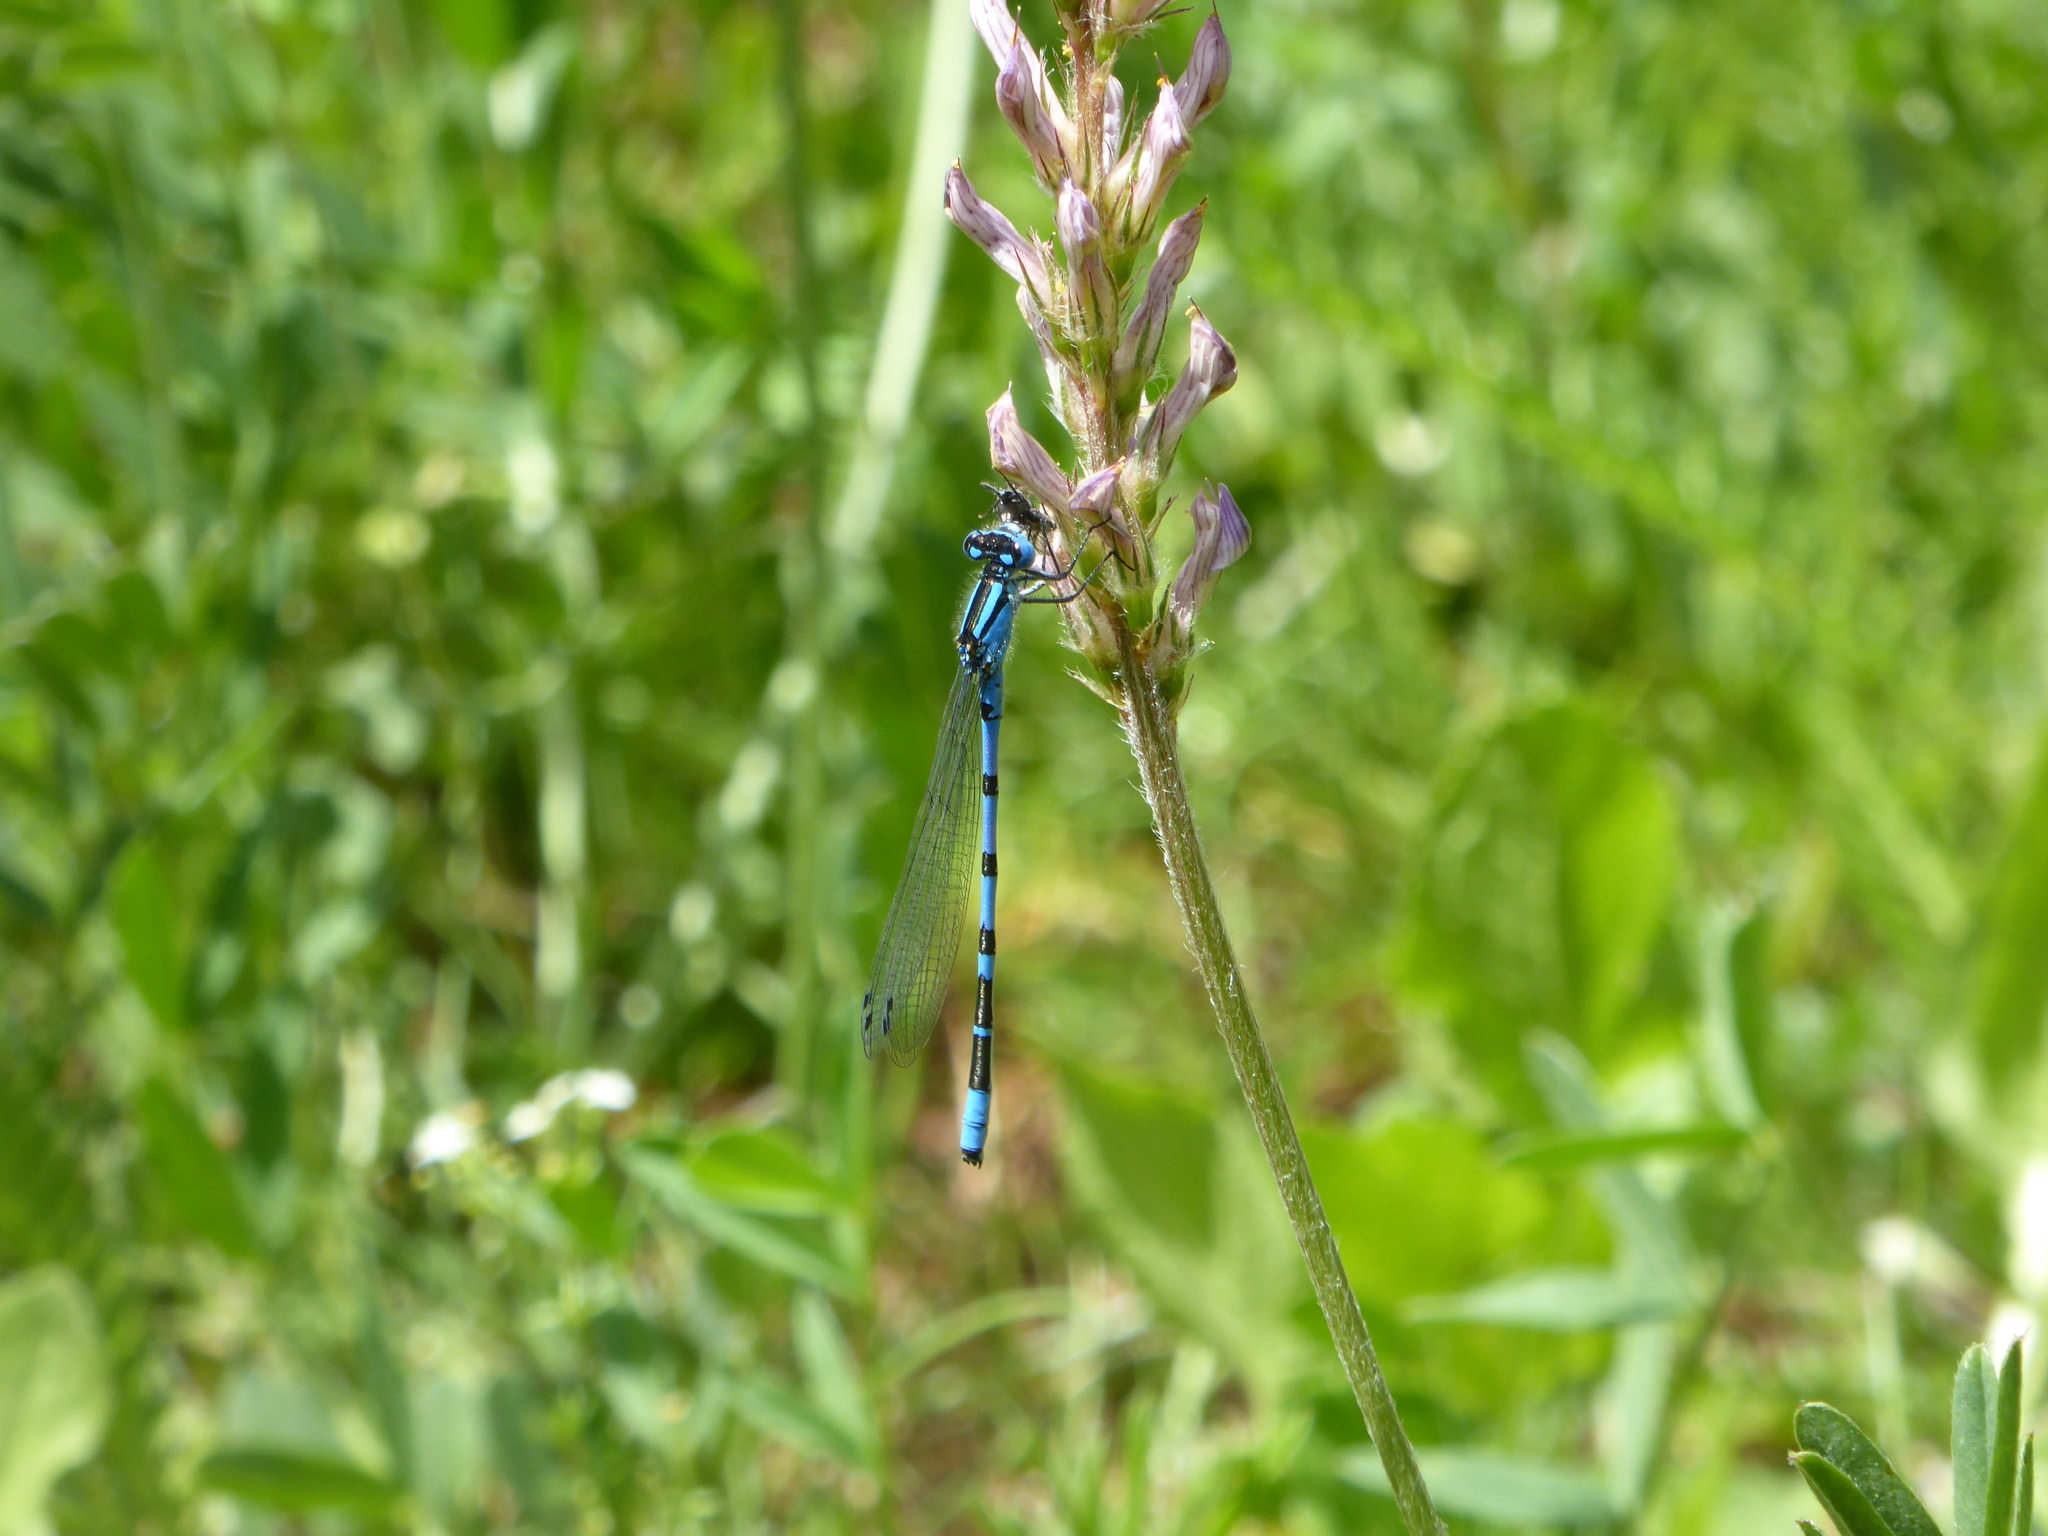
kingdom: Animalia
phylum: Arthropoda
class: Insecta
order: Odonata
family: Coenagrionidae
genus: Enallagma
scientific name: Enallagma cyathigerum
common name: Common blue damselfly
